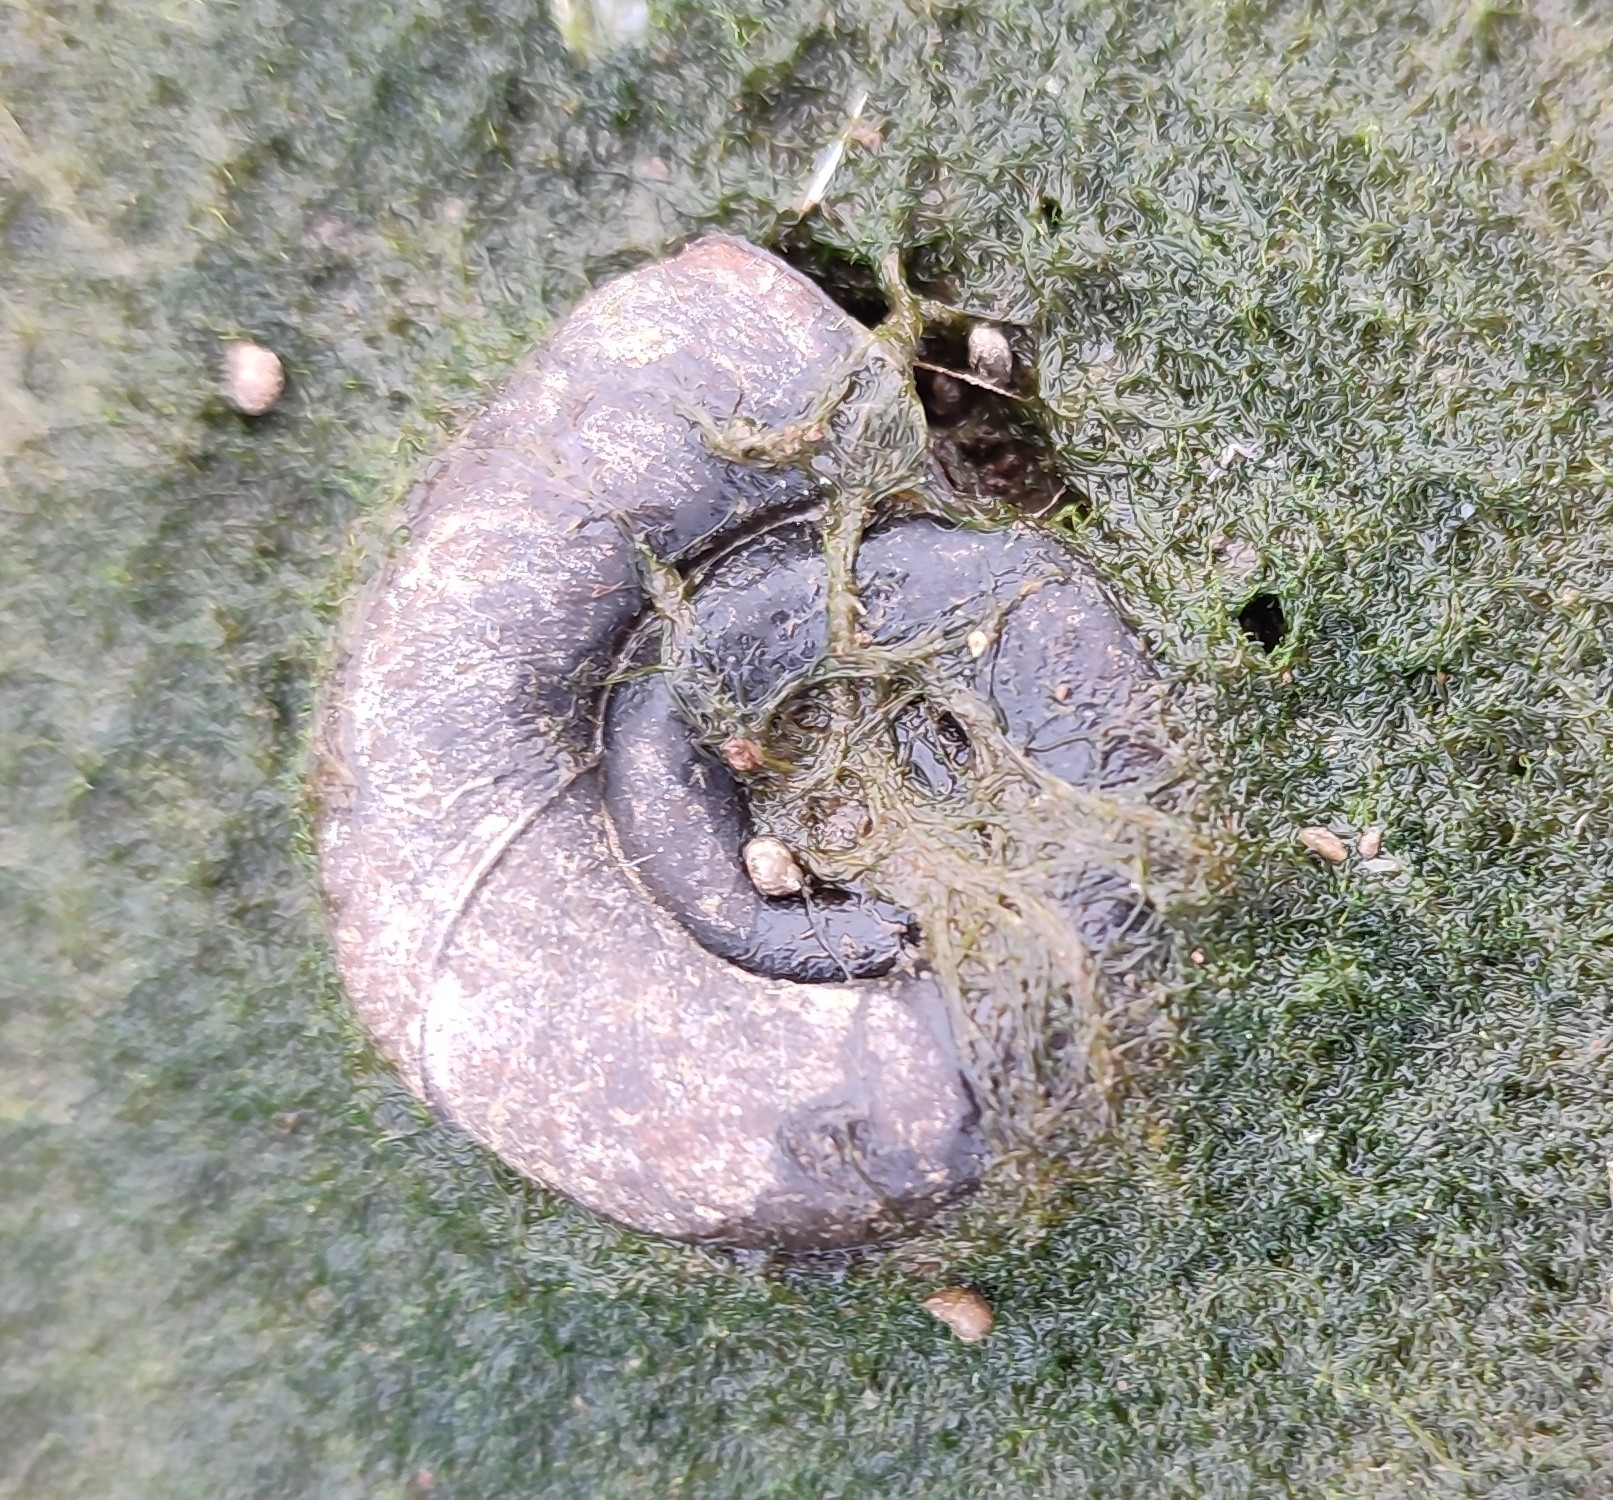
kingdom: Animalia
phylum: Mollusca
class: Gastropoda
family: Planorbidae
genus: Planorbarius
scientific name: Planorbarius corneus
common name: Great ramshorn
